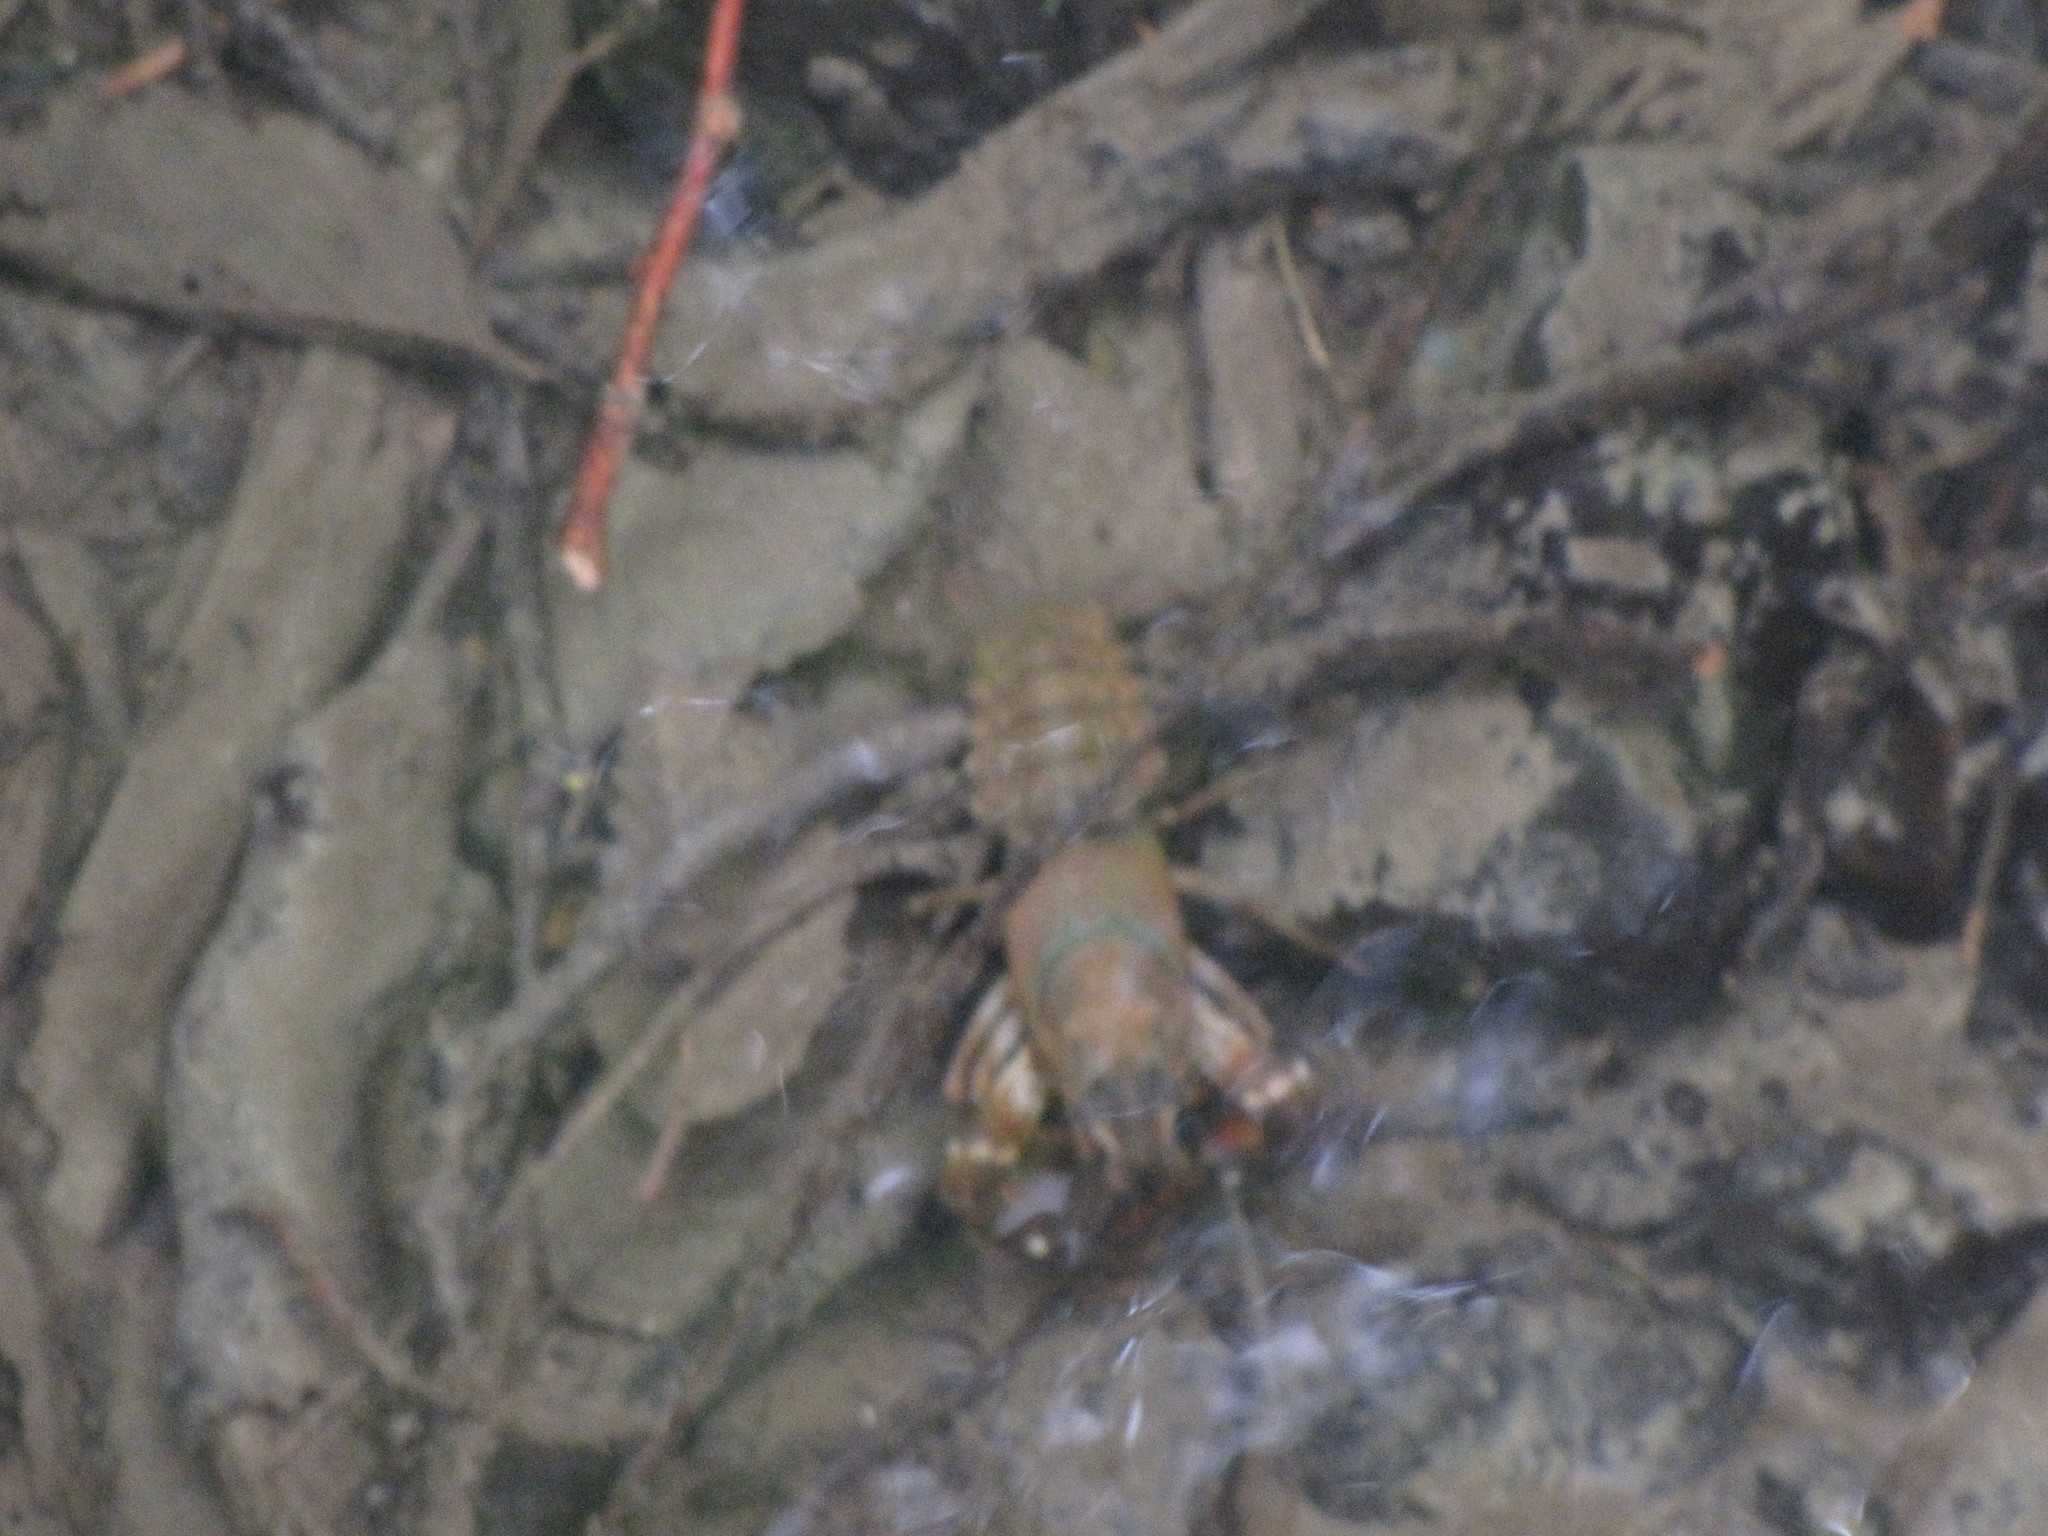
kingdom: Animalia
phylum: Arthropoda
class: Malacostraca
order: Decapoda
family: Astacidae
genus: Pacifastacus
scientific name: Pacifastacus leniusculus
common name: Signal crayfish
